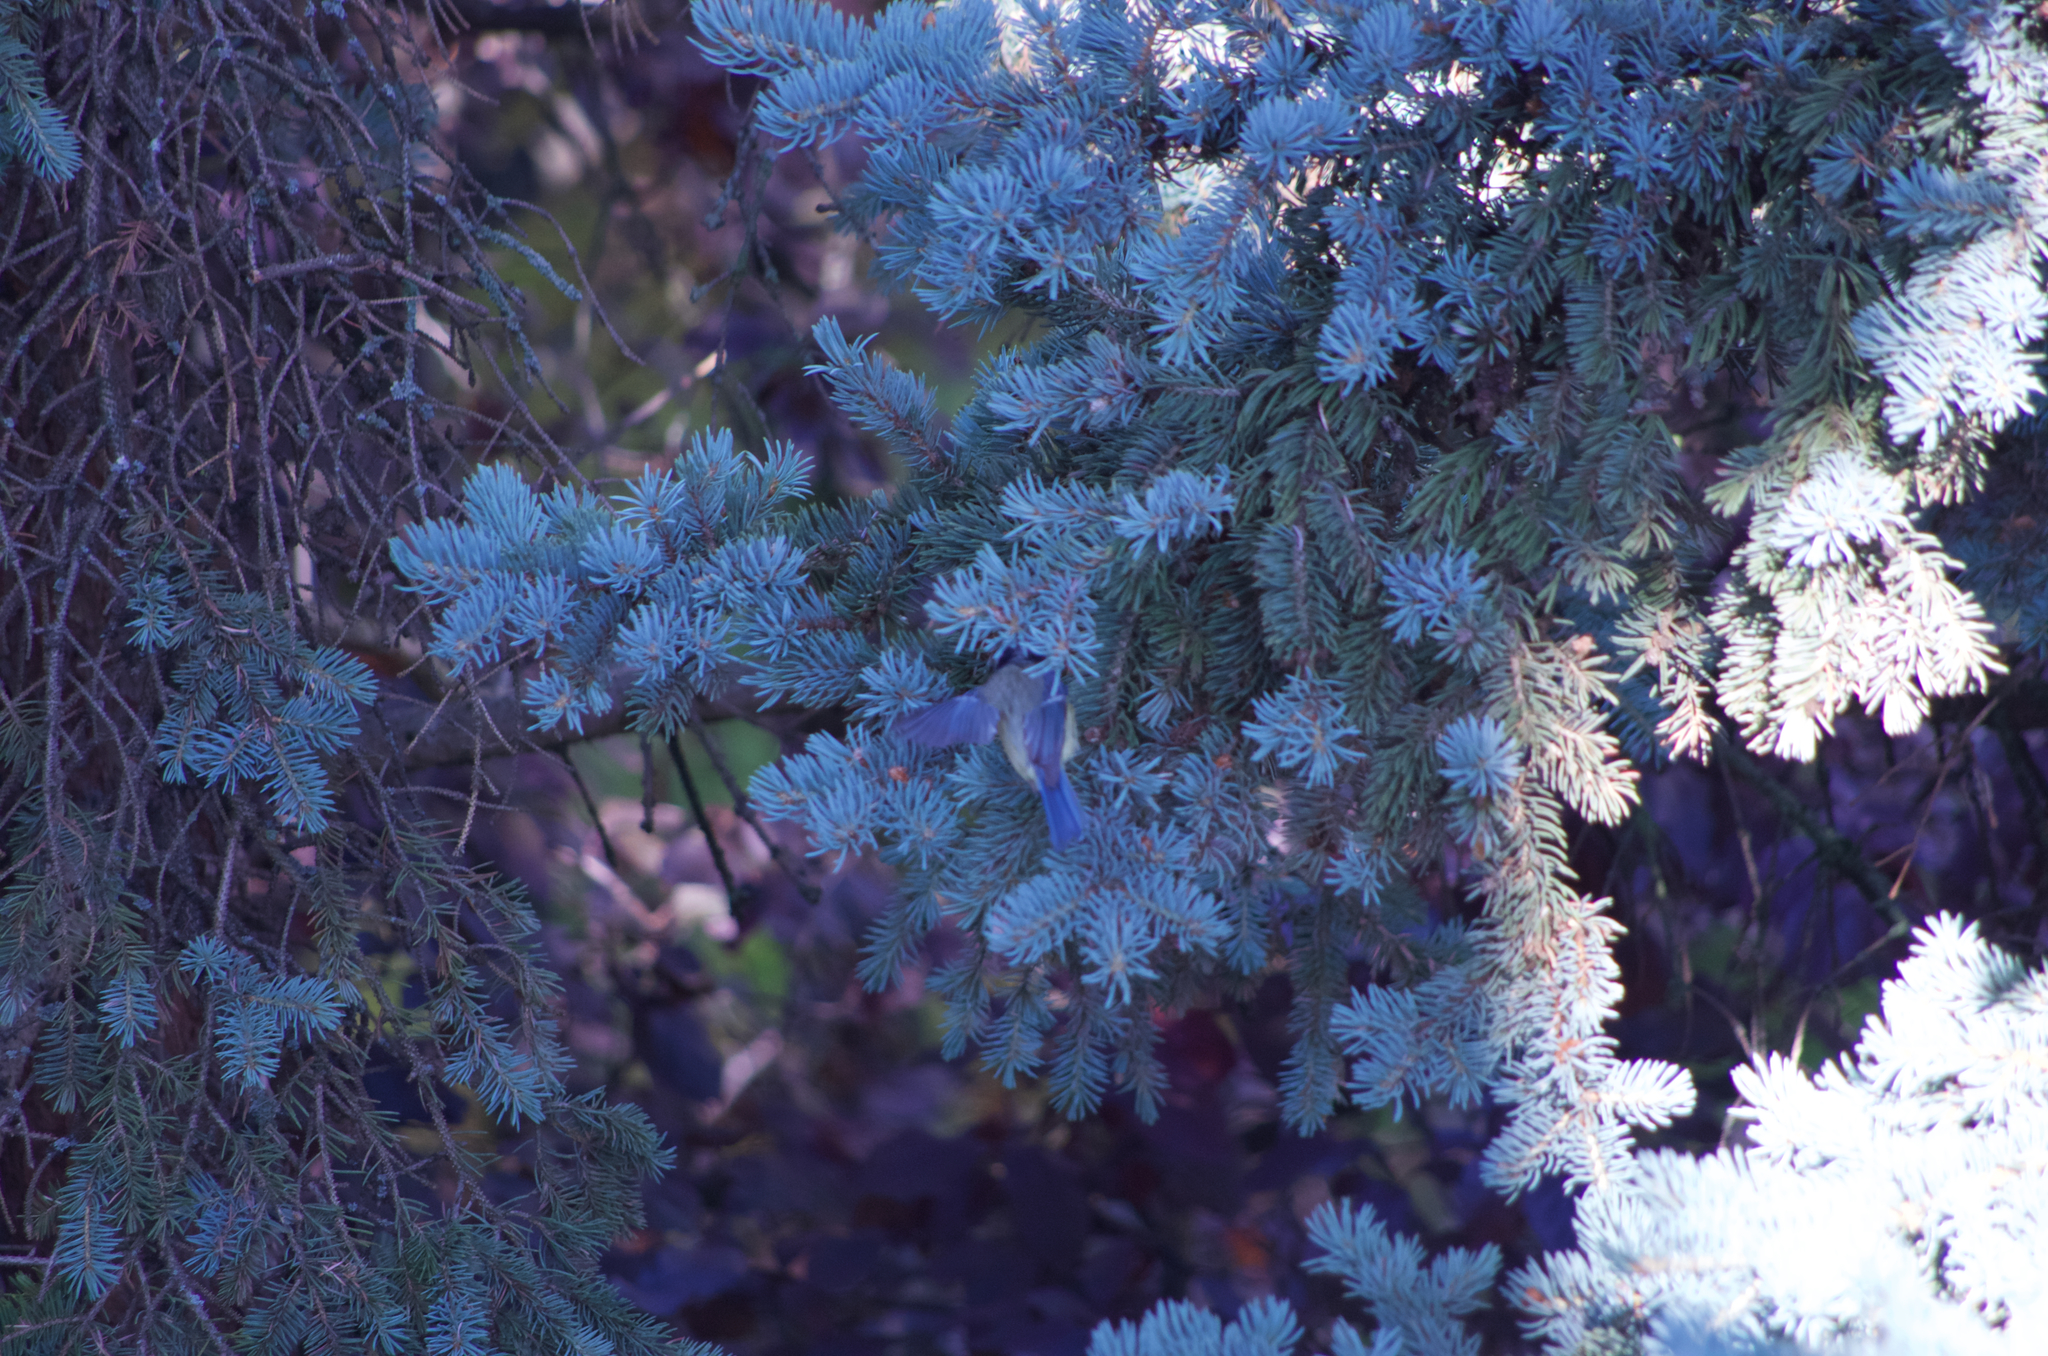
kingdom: Animalia
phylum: Chordata
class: Aves
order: Passeriformes
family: Paridae
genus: Cyanistes
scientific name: Cyanistes caeruleus
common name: Eurasian blue tit
